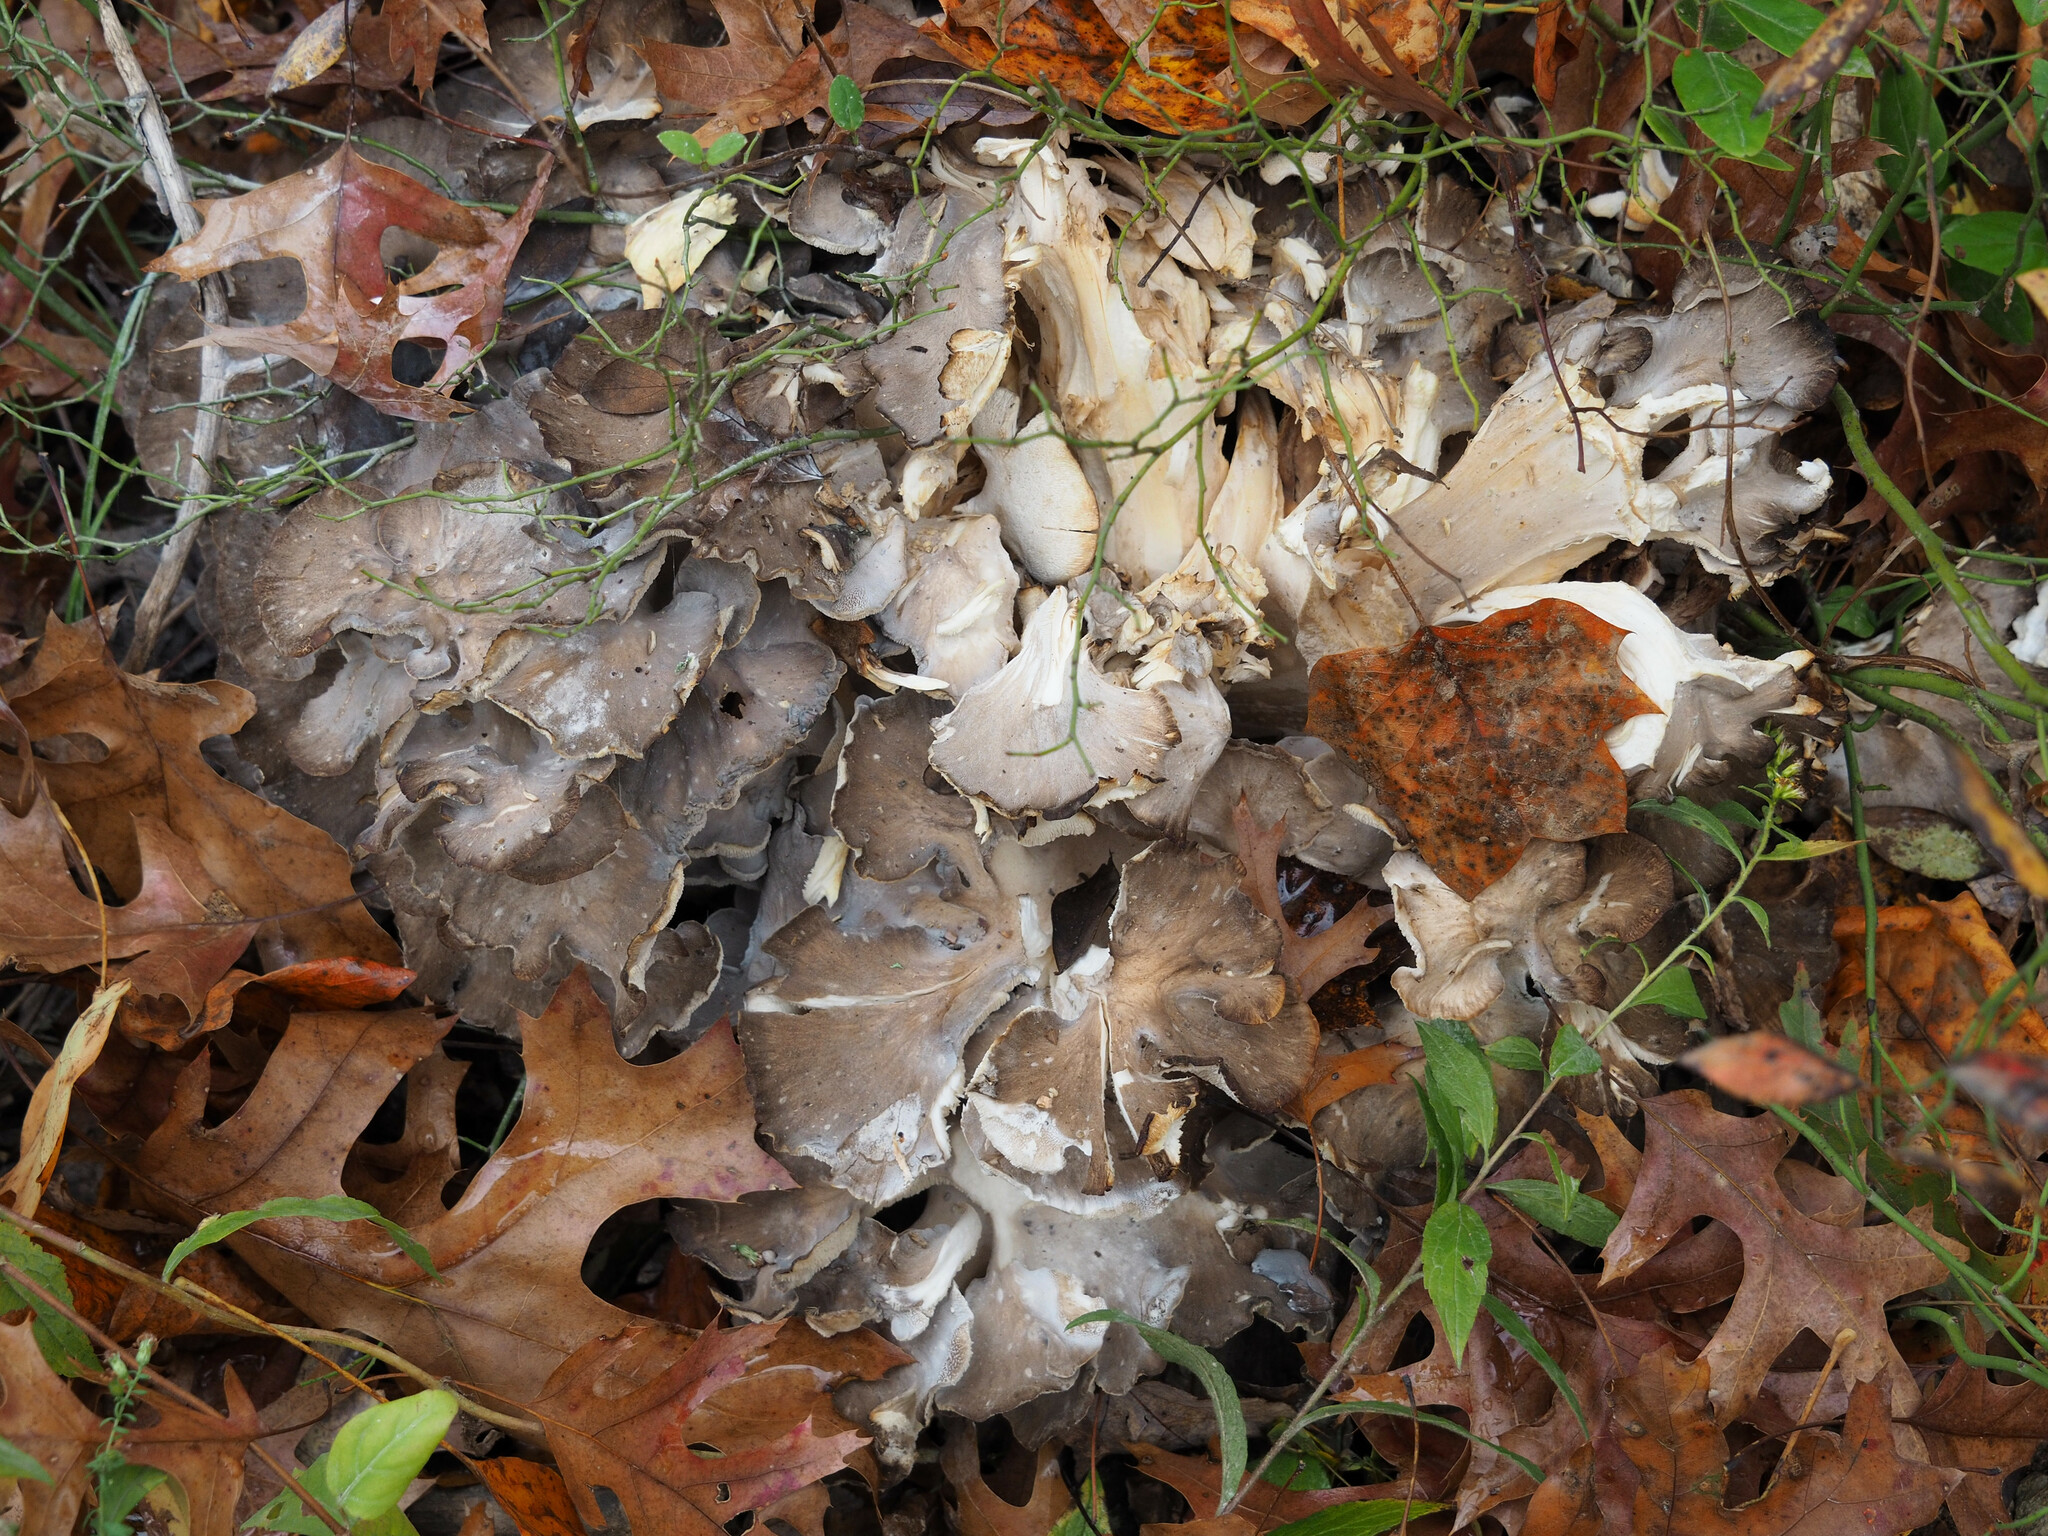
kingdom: Fungi
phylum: Basidiomycota
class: Agaricomycetes
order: Polyporales
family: Grifolaceae
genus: Grifola
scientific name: Grifola frondosa
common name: Hen of the woods
